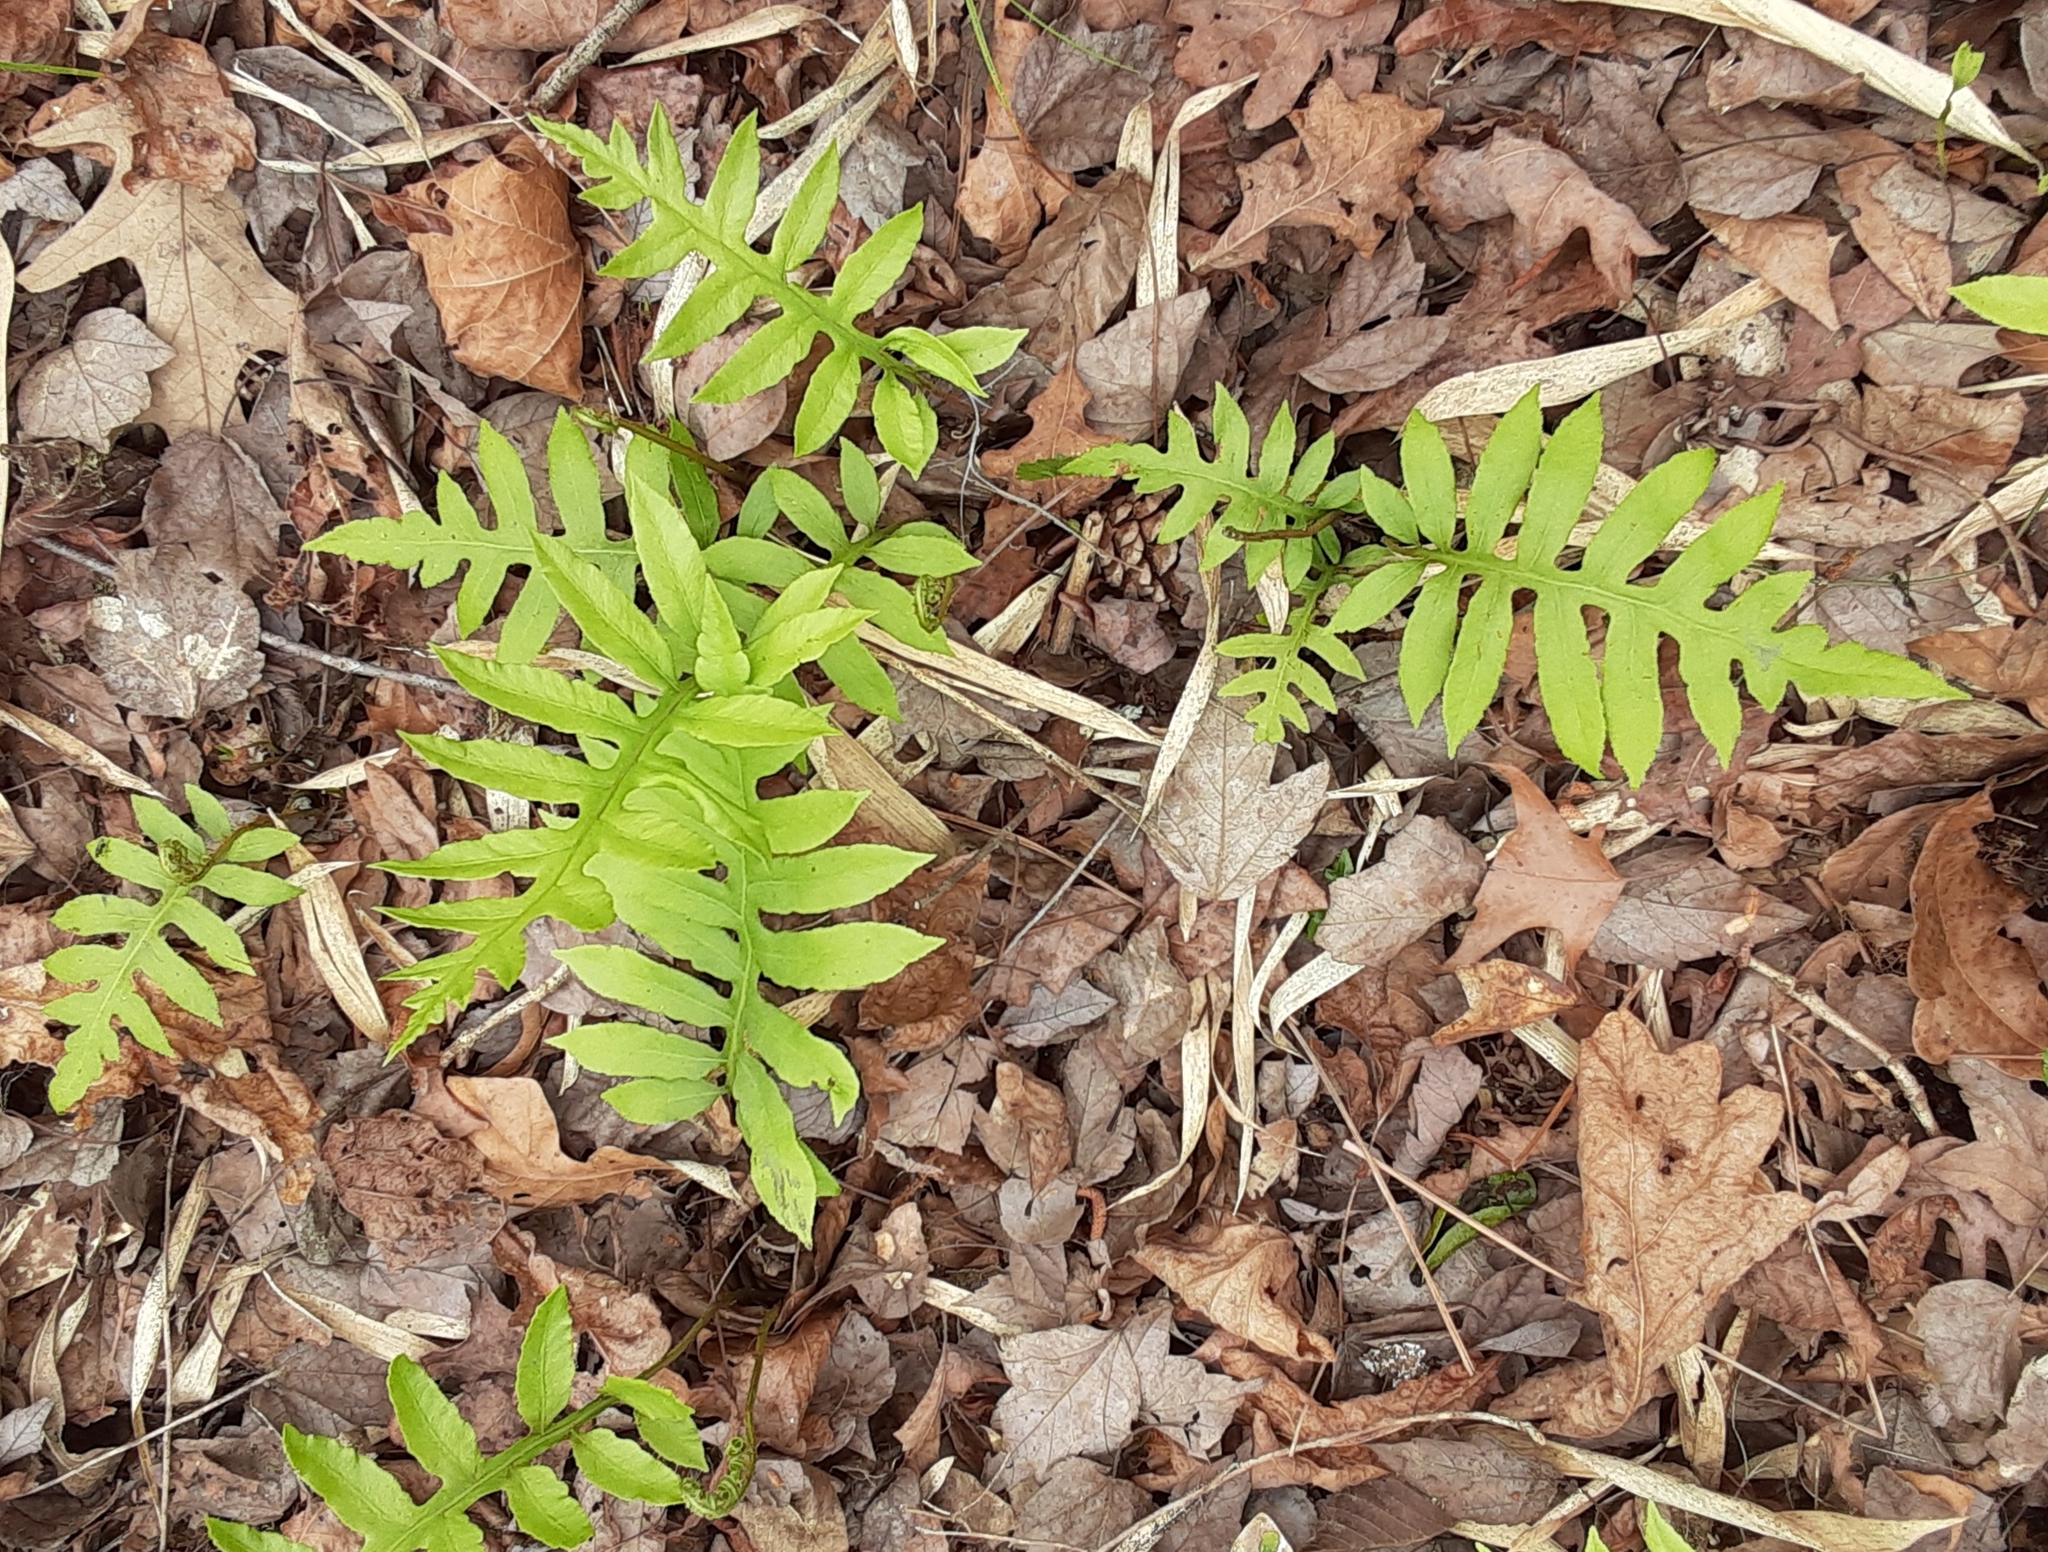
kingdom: Plantae
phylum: Tracheophyta
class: Polypodiopsida
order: Polypodiales
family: Blechnaceae
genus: Lorinseria
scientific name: Lorinseria areolata
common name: Dwarf chain fern
